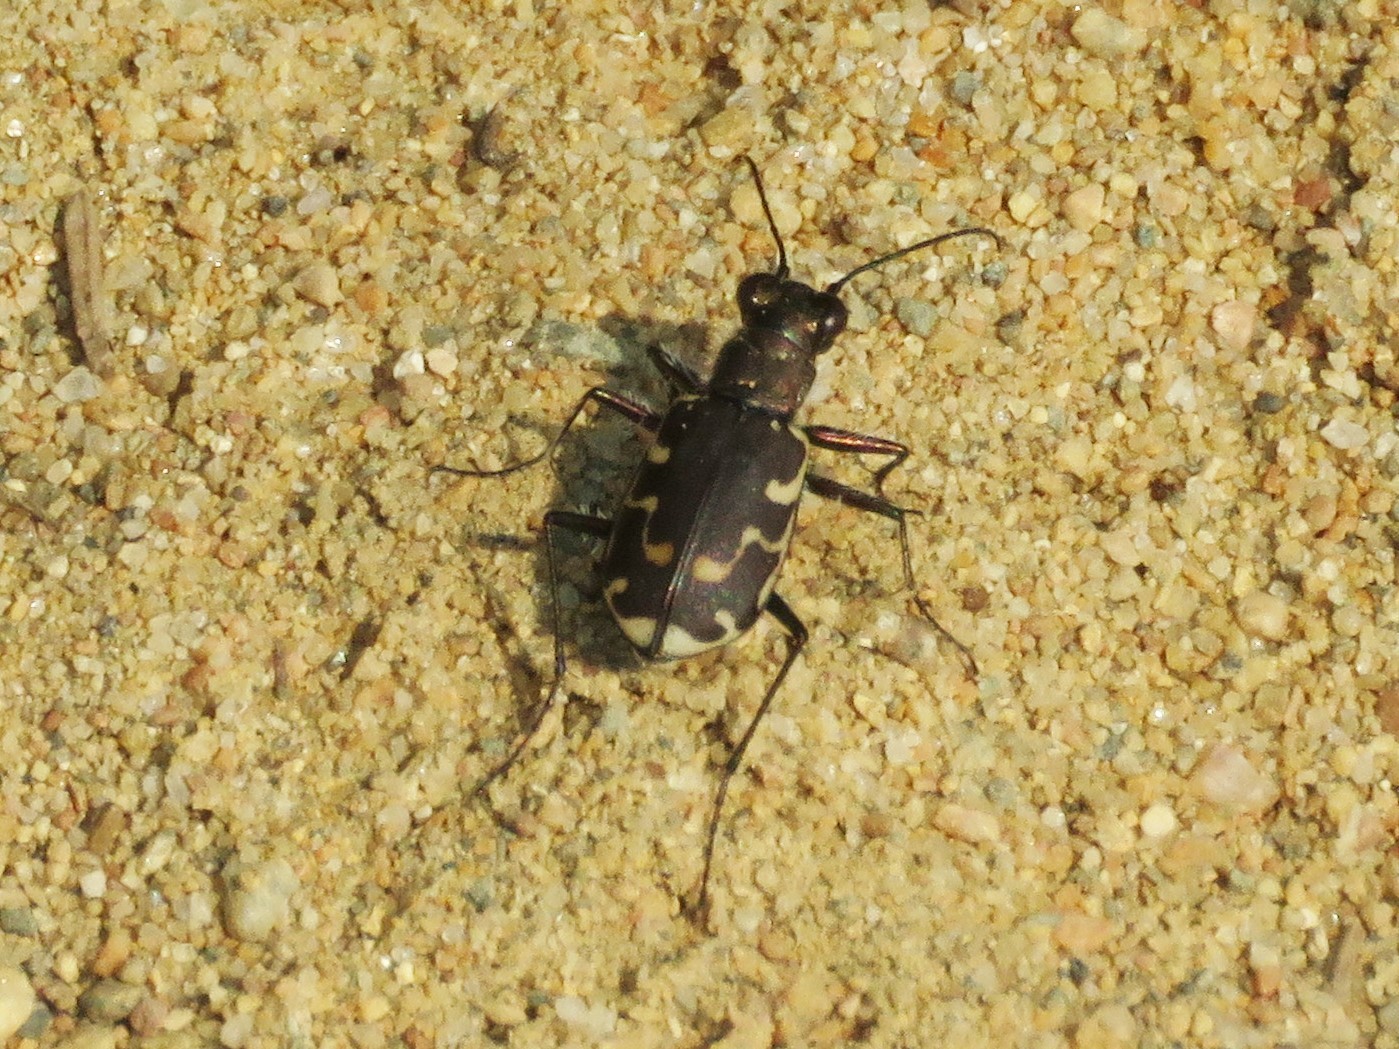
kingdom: Animalia
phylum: Arthropoda
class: Insecta
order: Coleoptera
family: Carabidae
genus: Cicindela
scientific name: Cicindela repanda
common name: Bronzed tiger beetle
